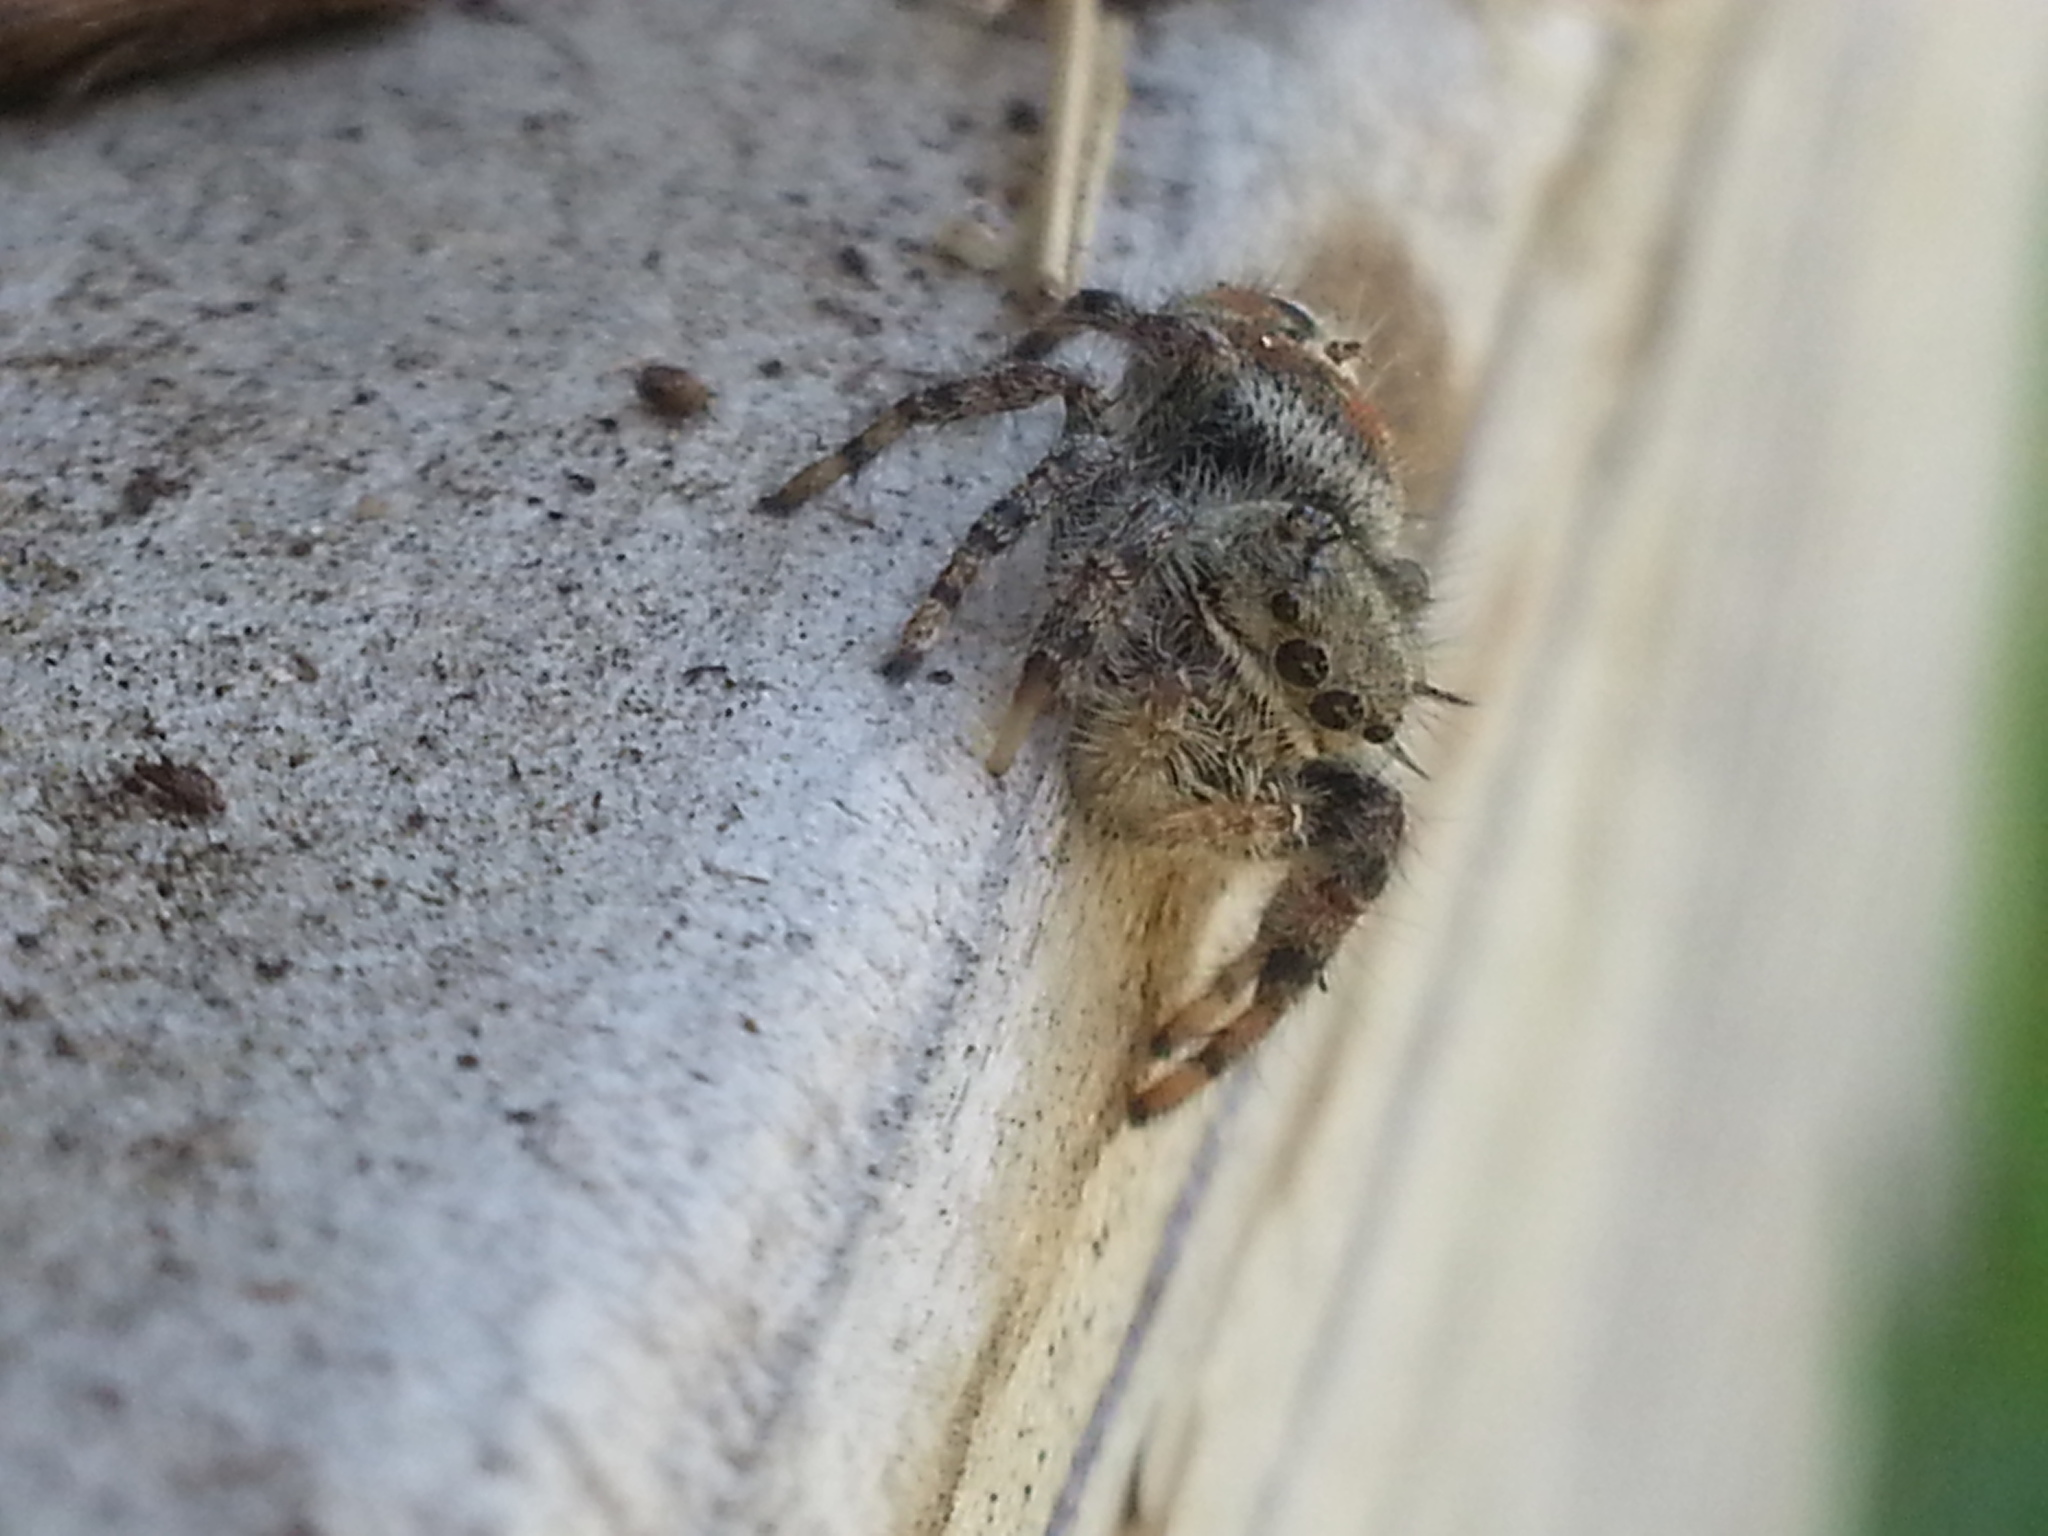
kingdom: Animalia
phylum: Arthropoda
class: Arachnida
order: Araneae
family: Salticidae
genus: Phidippus
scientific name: Phidippus adumbratus
